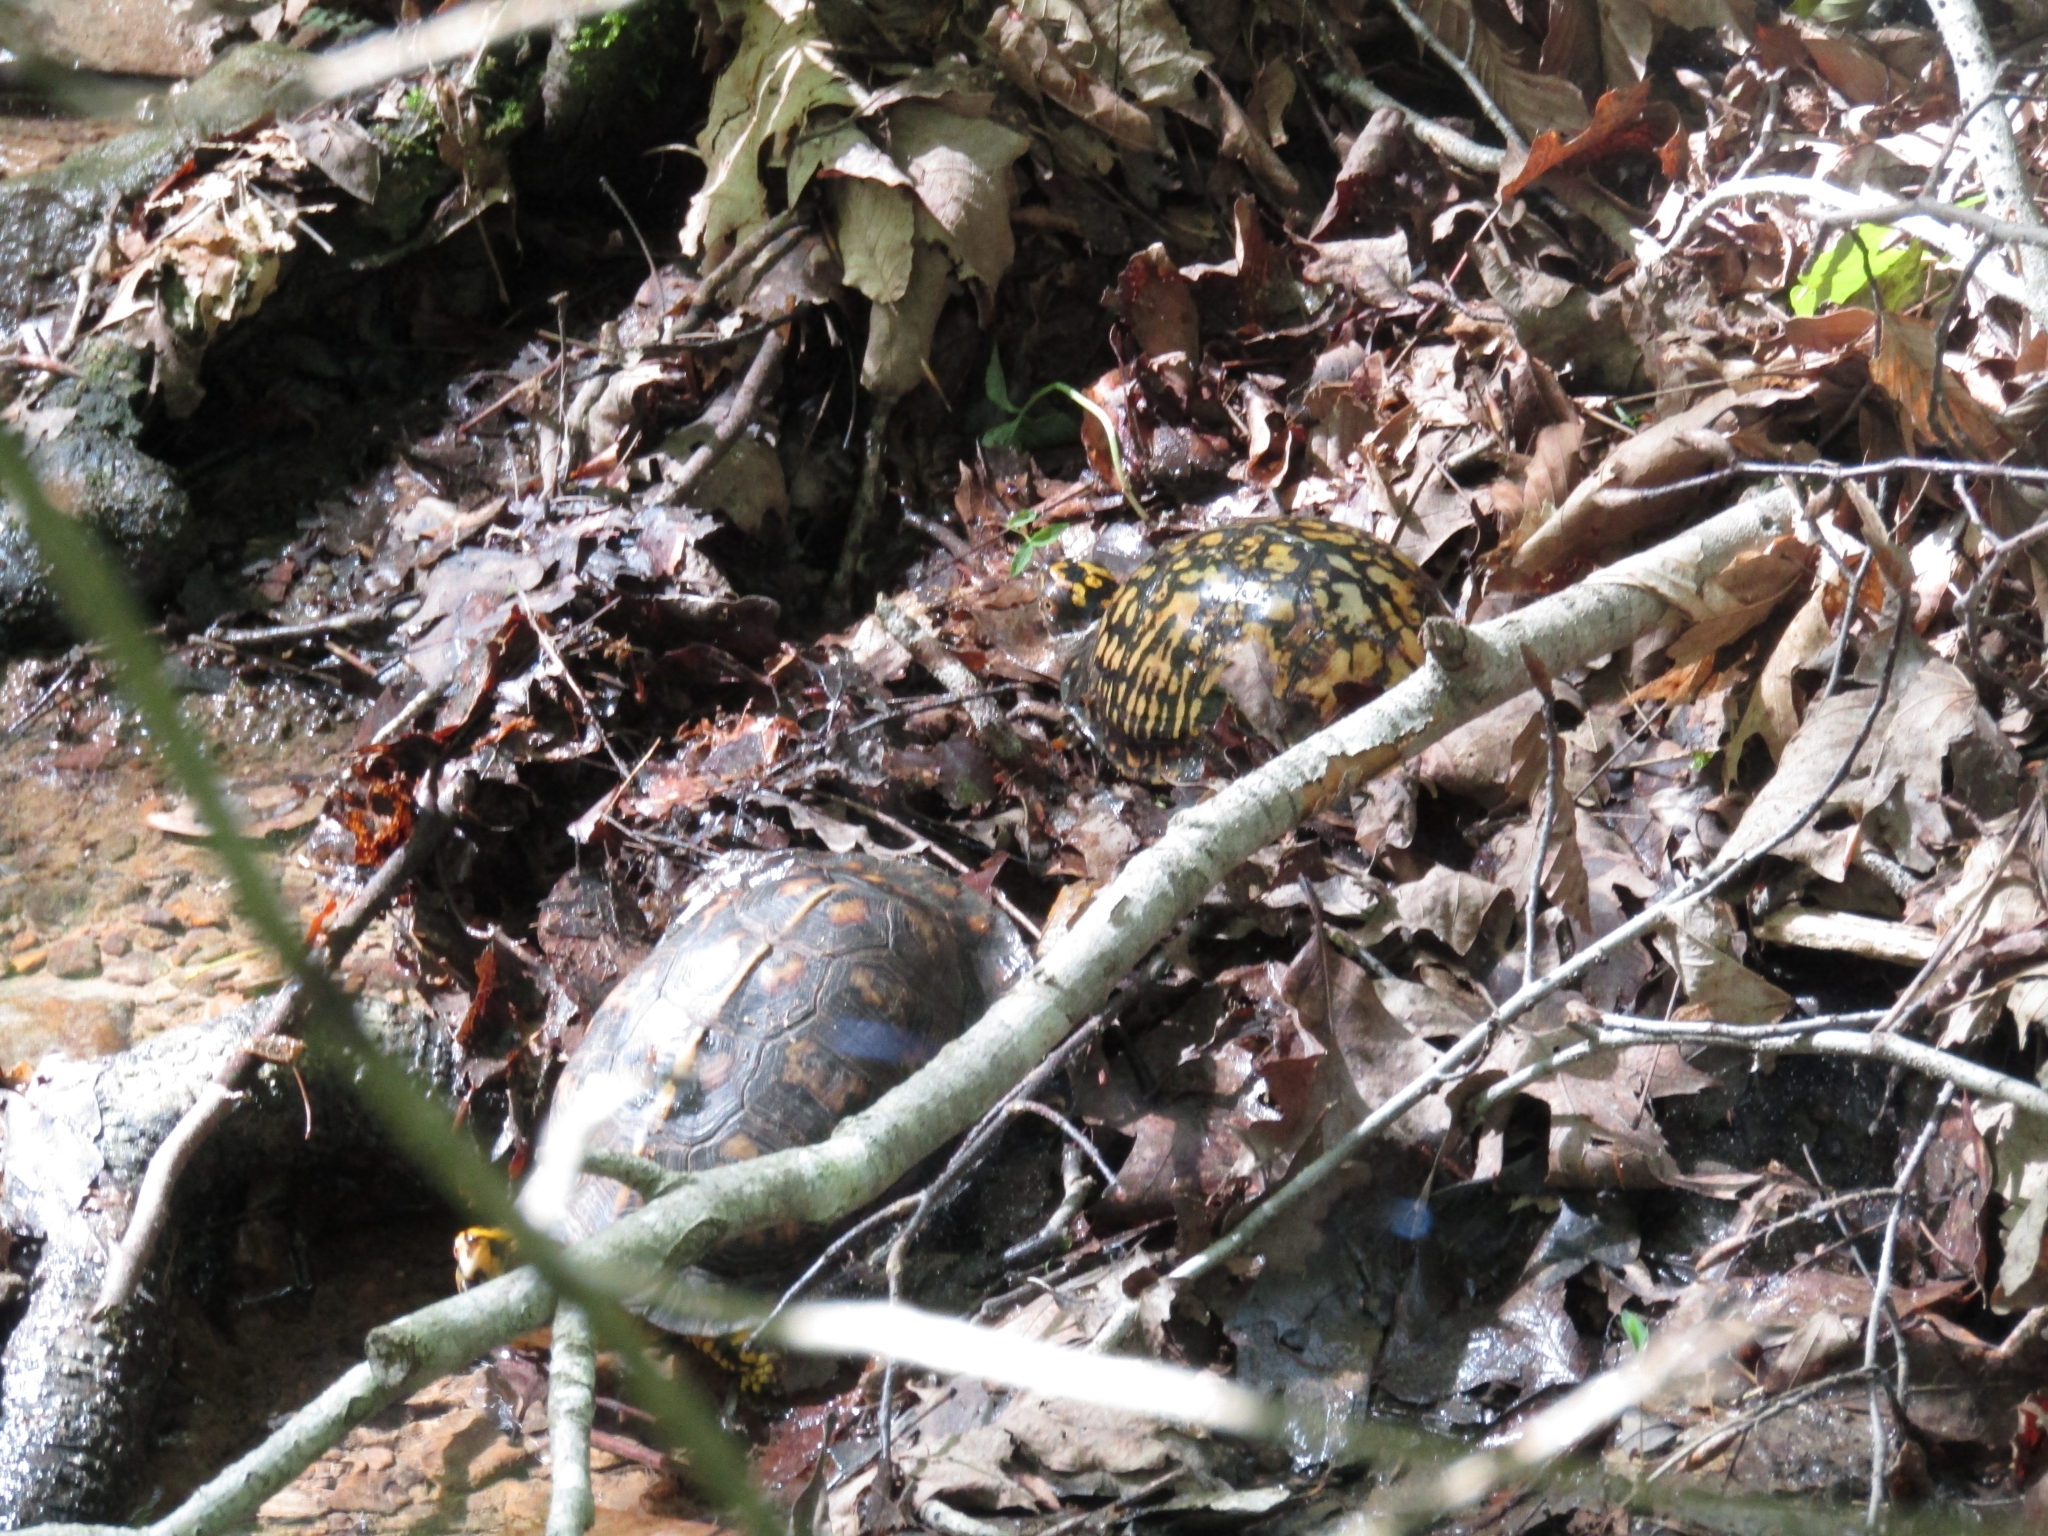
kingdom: Animalia
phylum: Chordata
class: Testudines
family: Emydidae
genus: Terrapene
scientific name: Terrapene carolina
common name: Common box turtle
